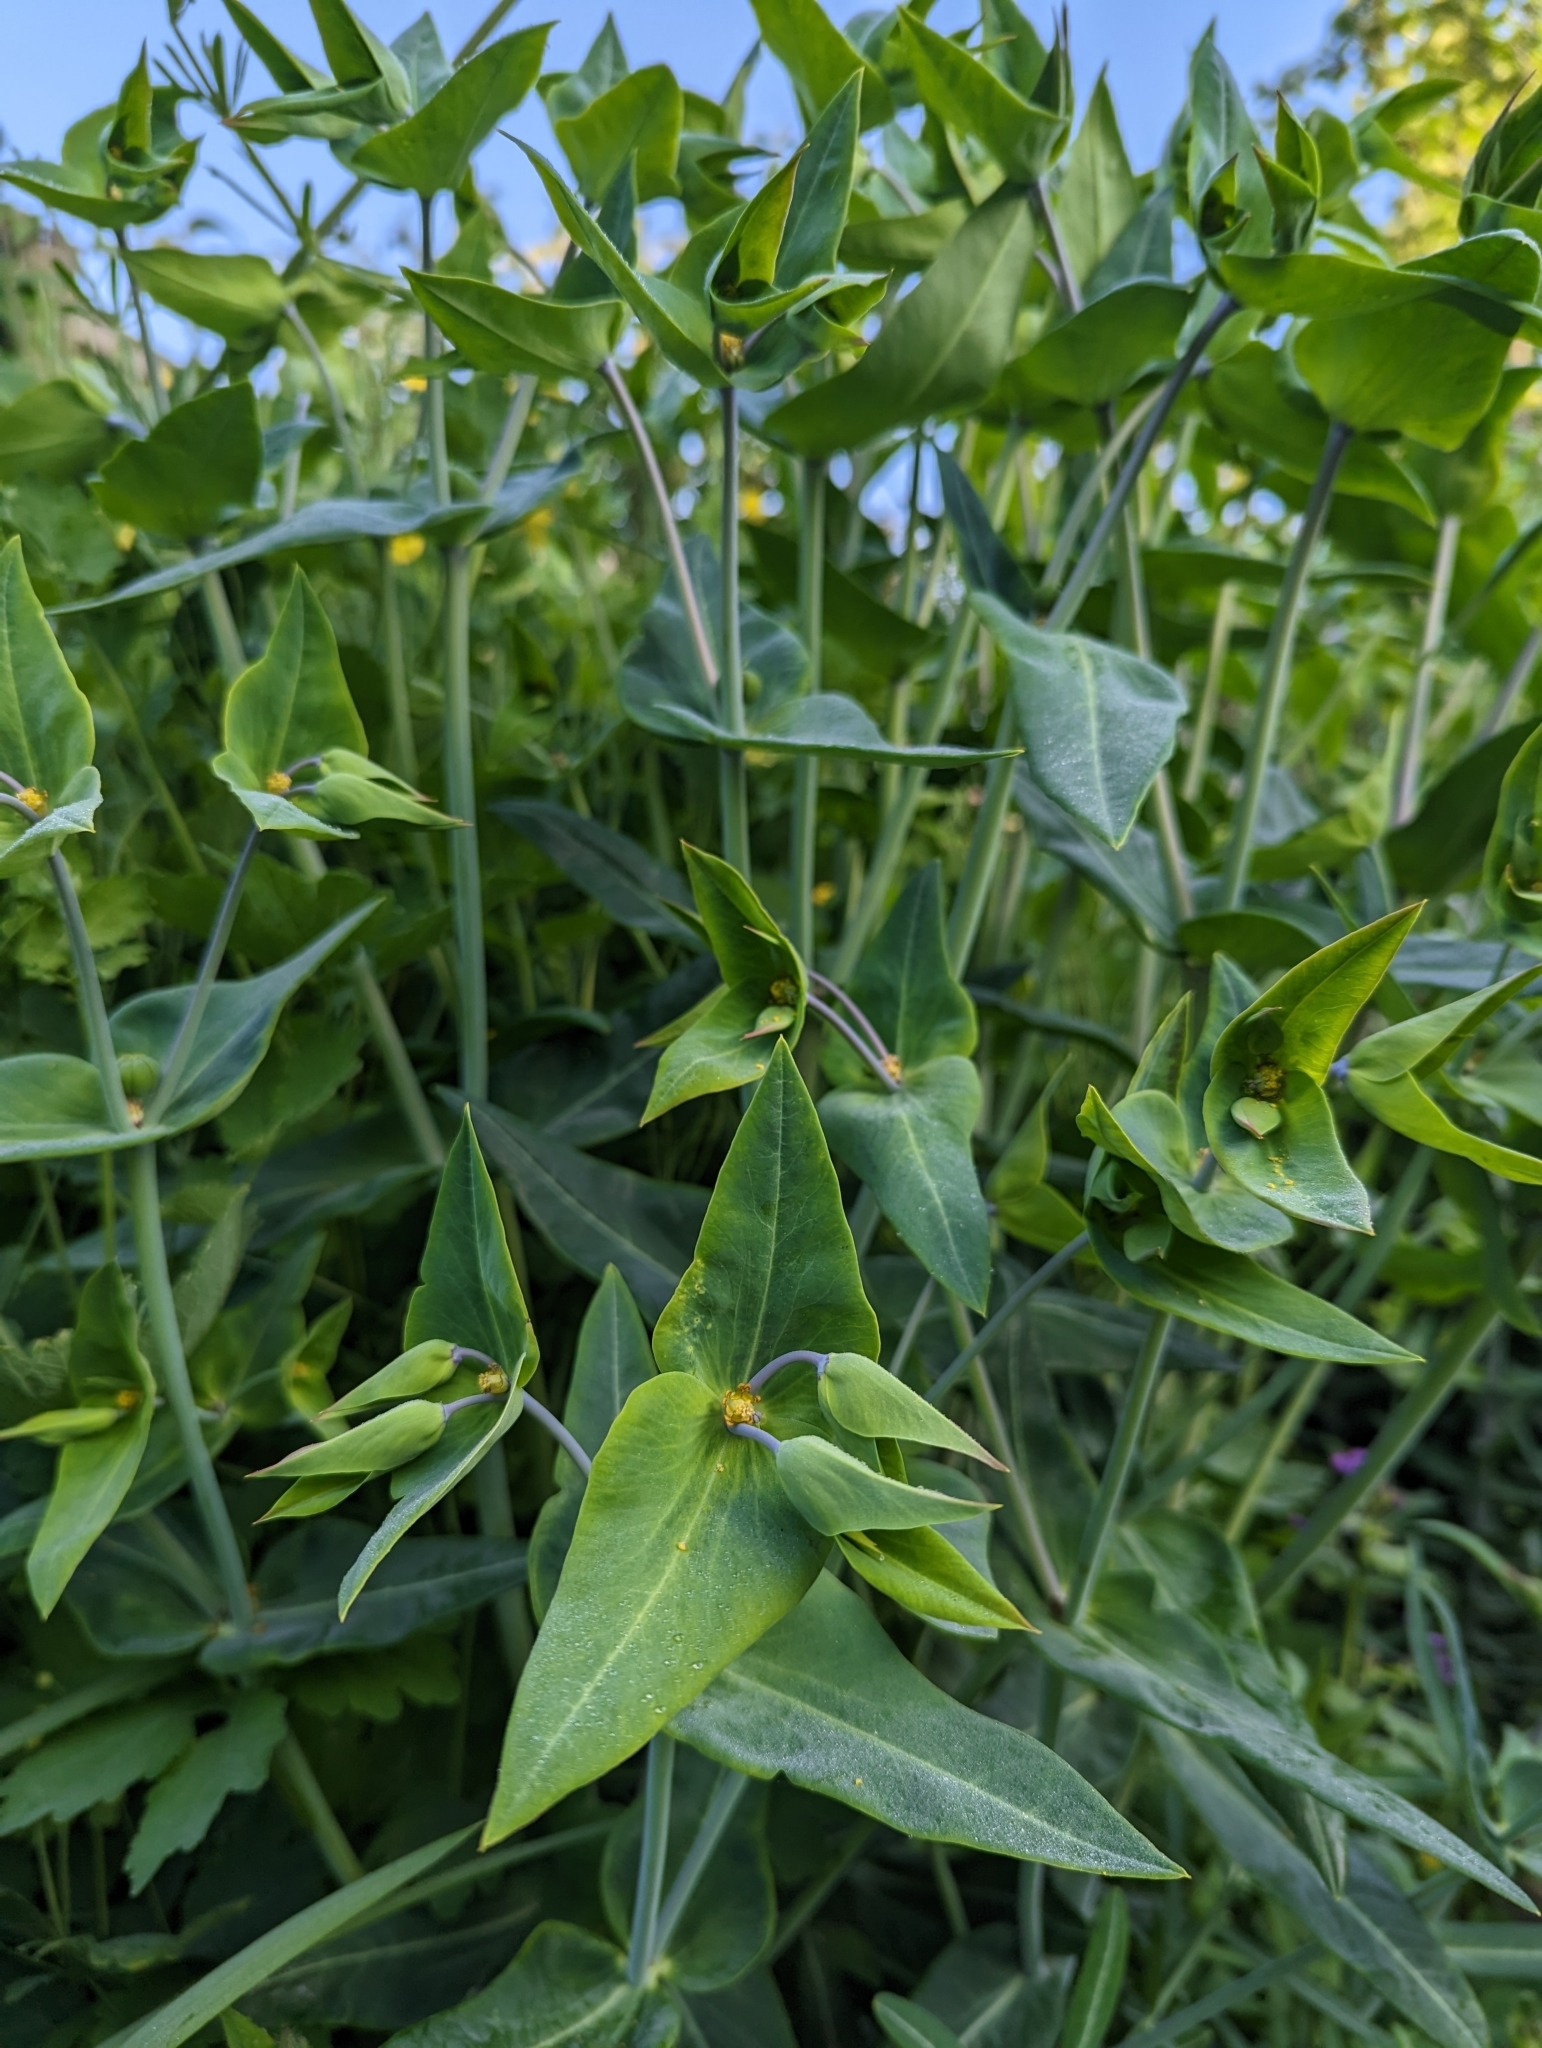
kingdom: Plantae
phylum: Tracheophyta
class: Magnoliopsida
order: Malpighiales
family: Euphorbiaceae
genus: Euphorbia
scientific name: Euphorbia lathyris
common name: Caper spurge
